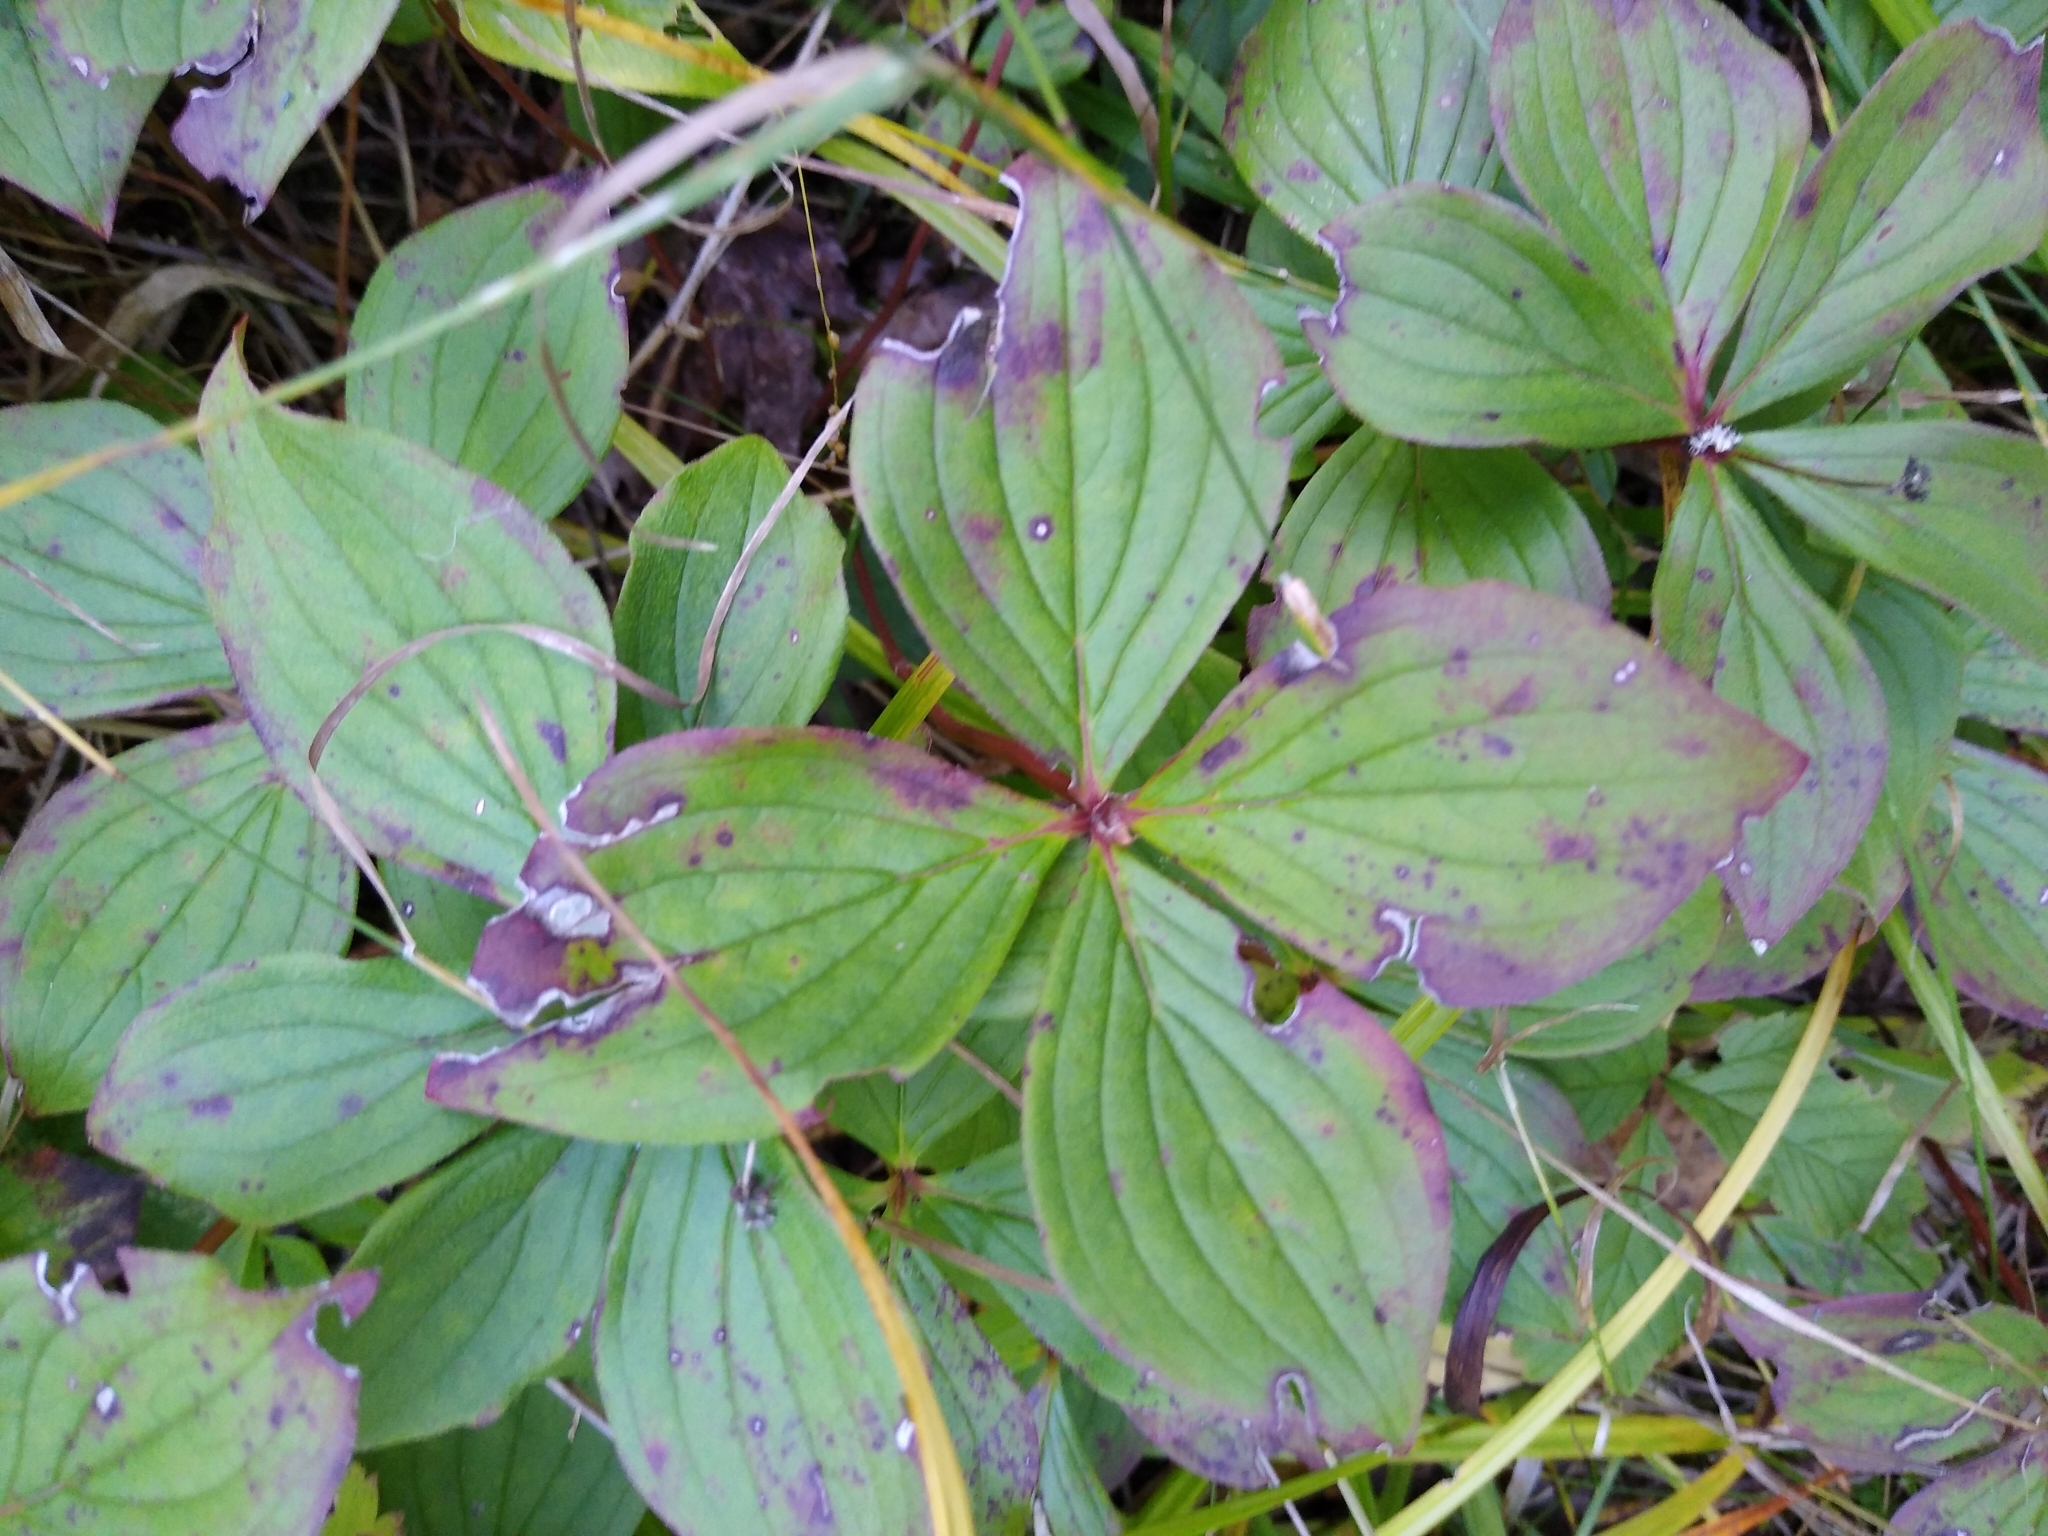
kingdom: Plantae
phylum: Tracheophyta
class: Magnoliopsida
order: Cornales
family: Cornaceae
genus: Cornus
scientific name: Cornus canadensis
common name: Creeping dogwood
